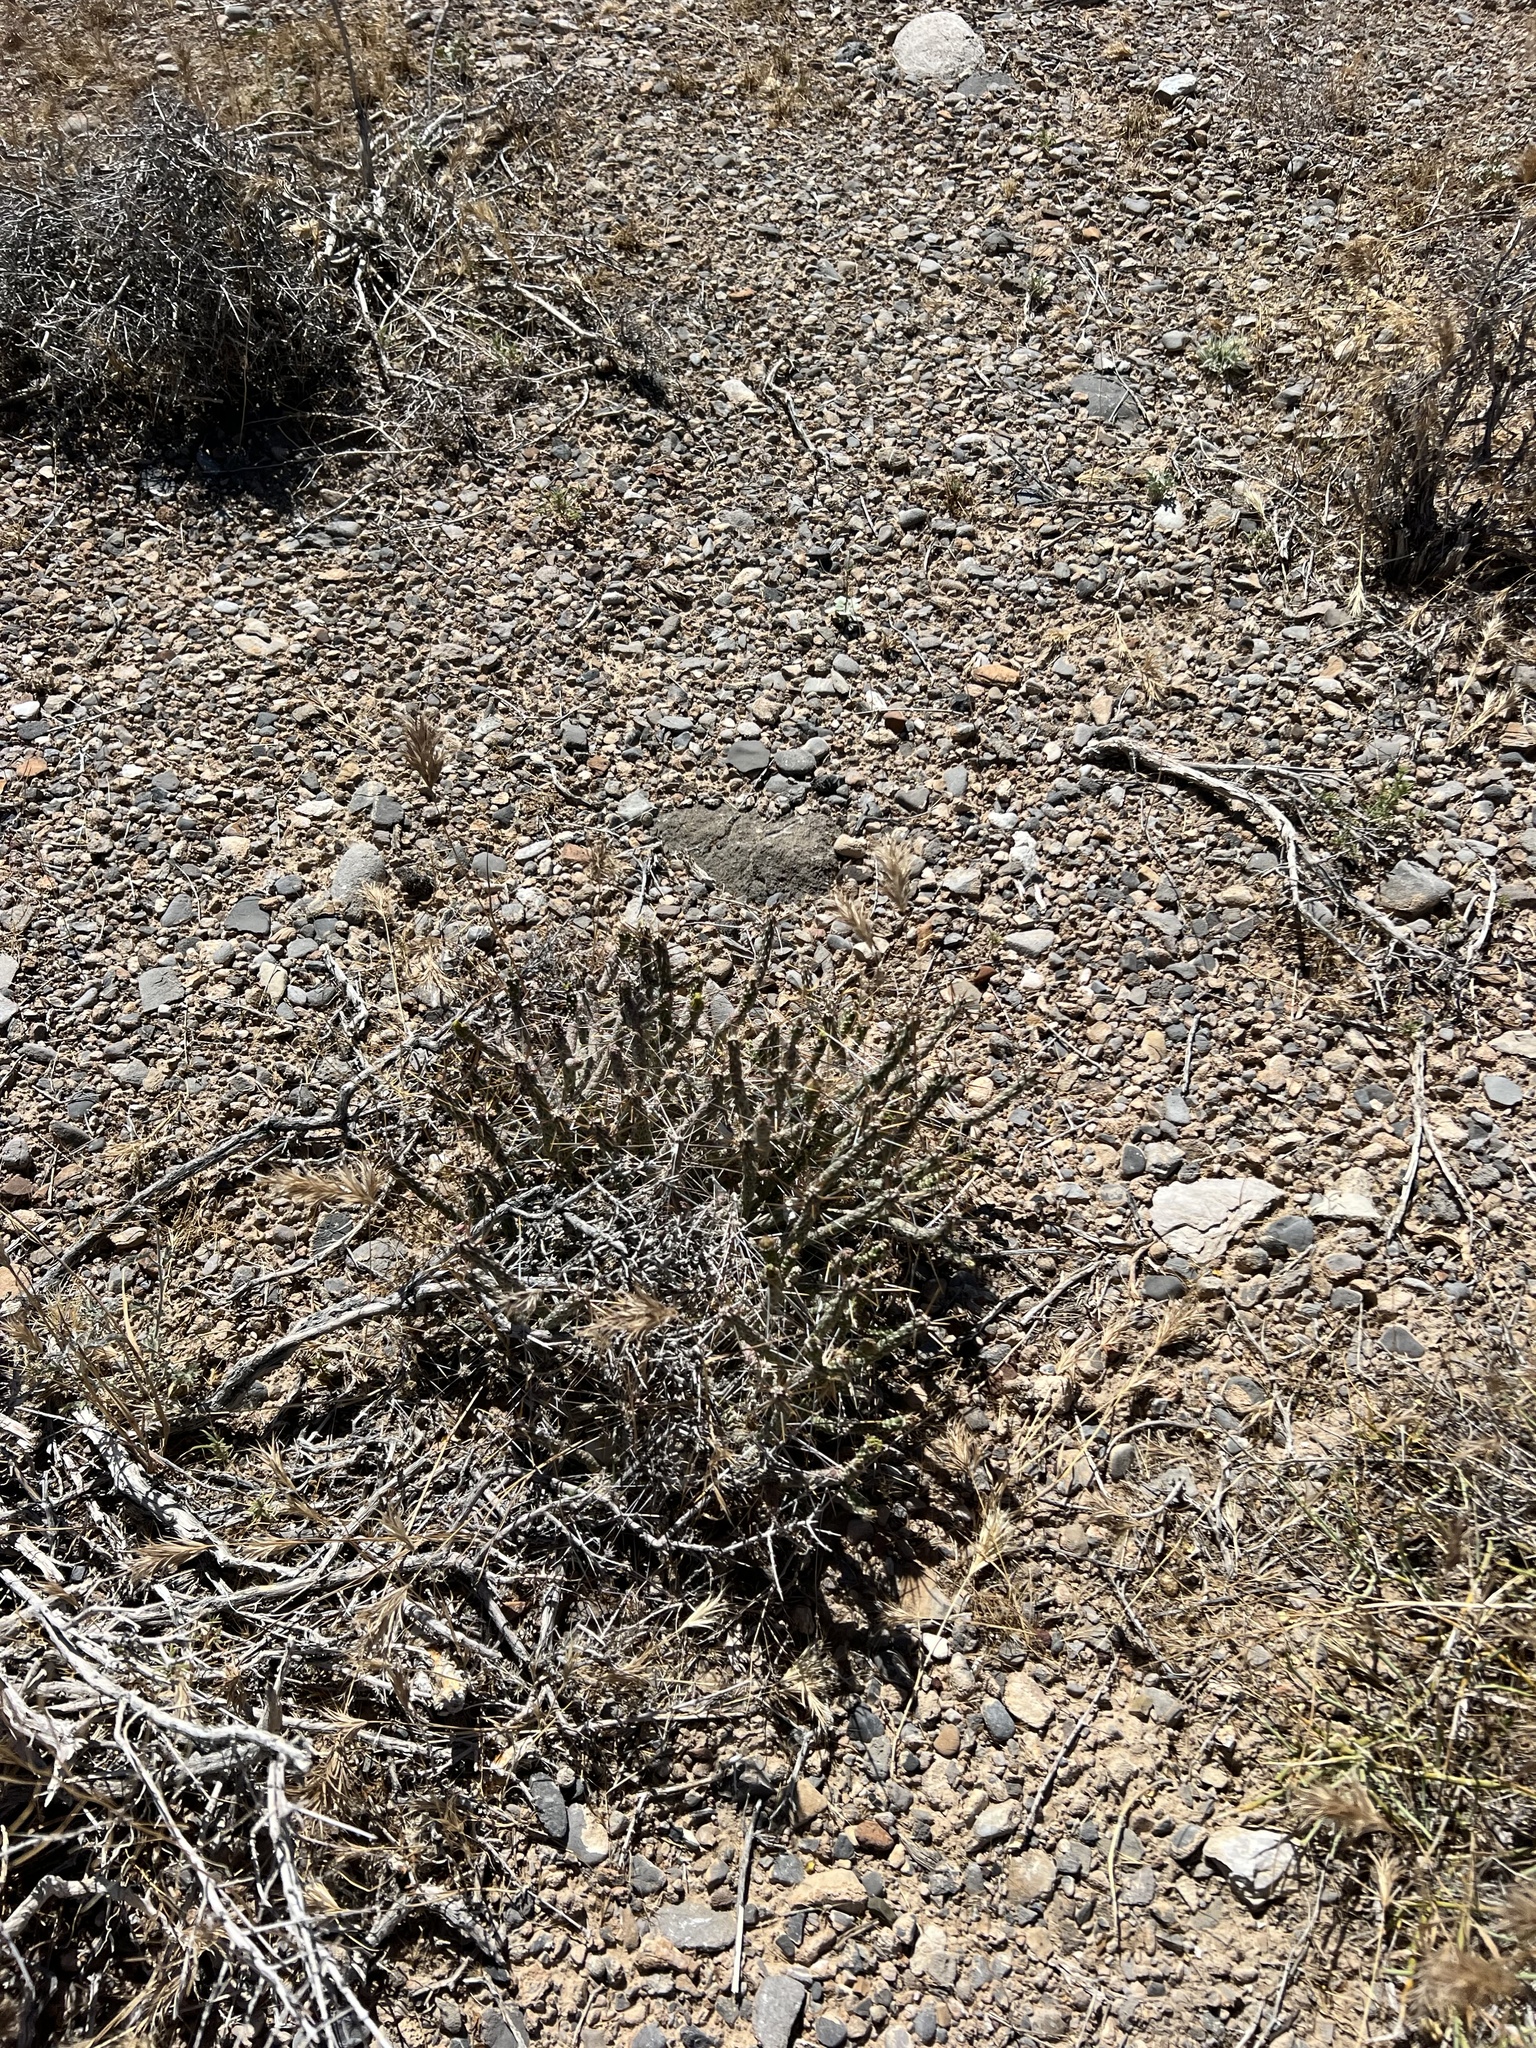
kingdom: Plantae
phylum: Tracheophyta
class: Magnoliopsida
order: Caryophyllales
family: Cactaceae
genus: Cylindropuntia
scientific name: Cylindropuntia ramosissima
